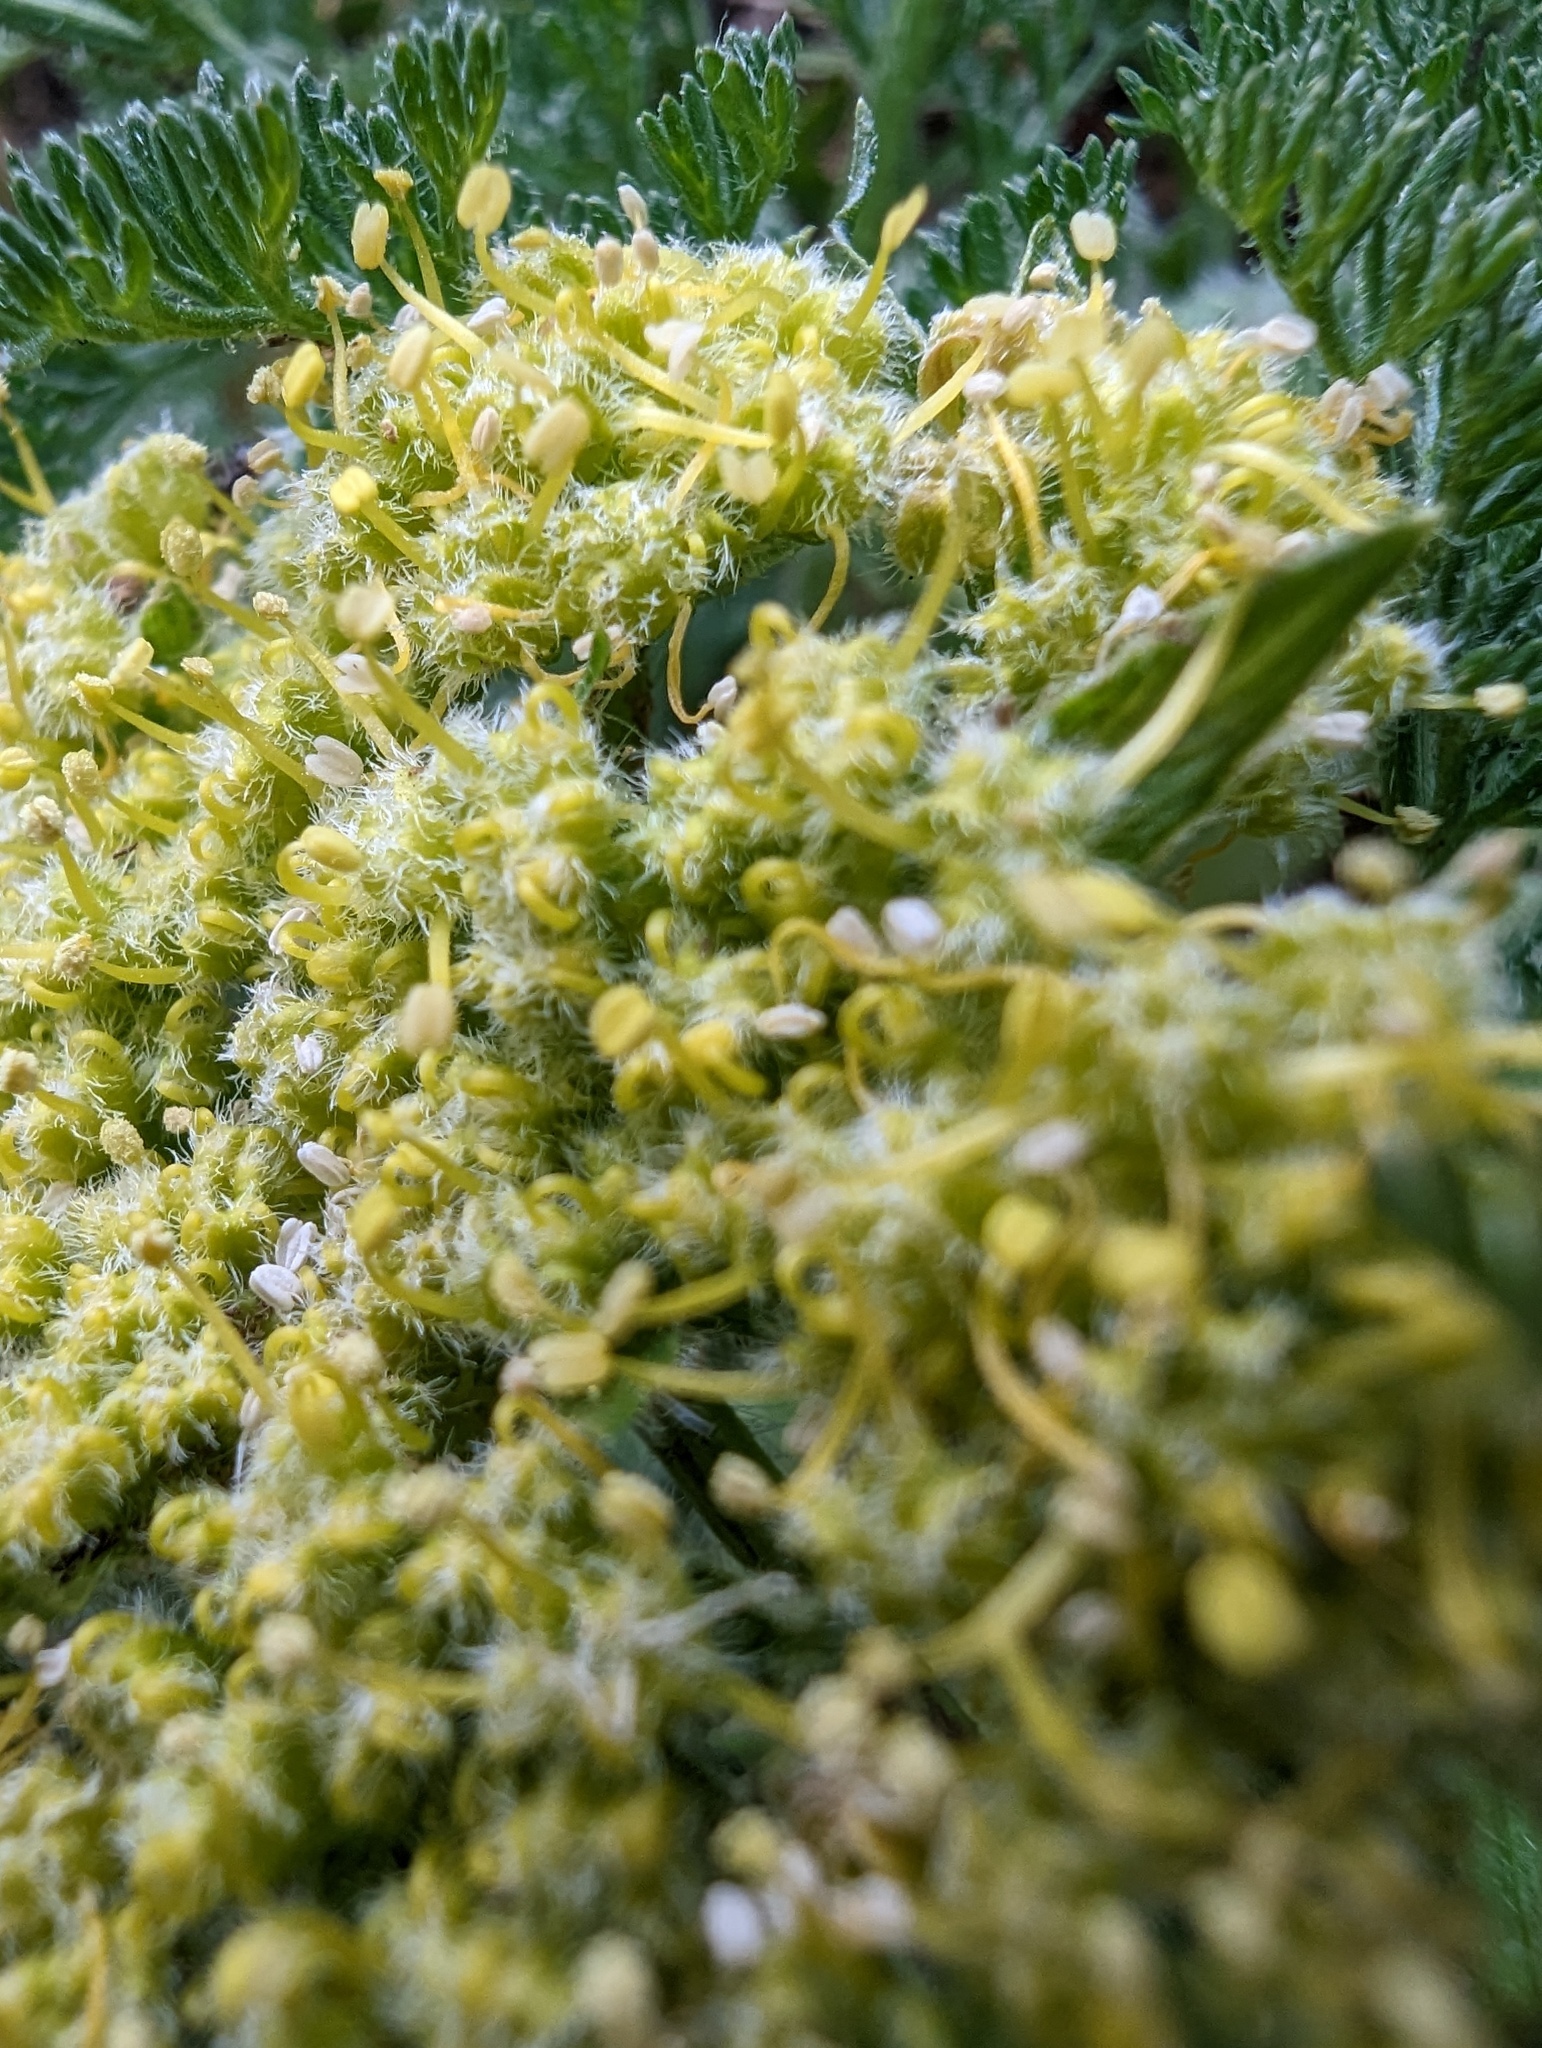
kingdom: Plantae
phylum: Tracheophyta
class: Magnoliopsida
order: Apiales
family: Apiaceae
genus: Lomatium
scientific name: Lomatium dasycarpum
